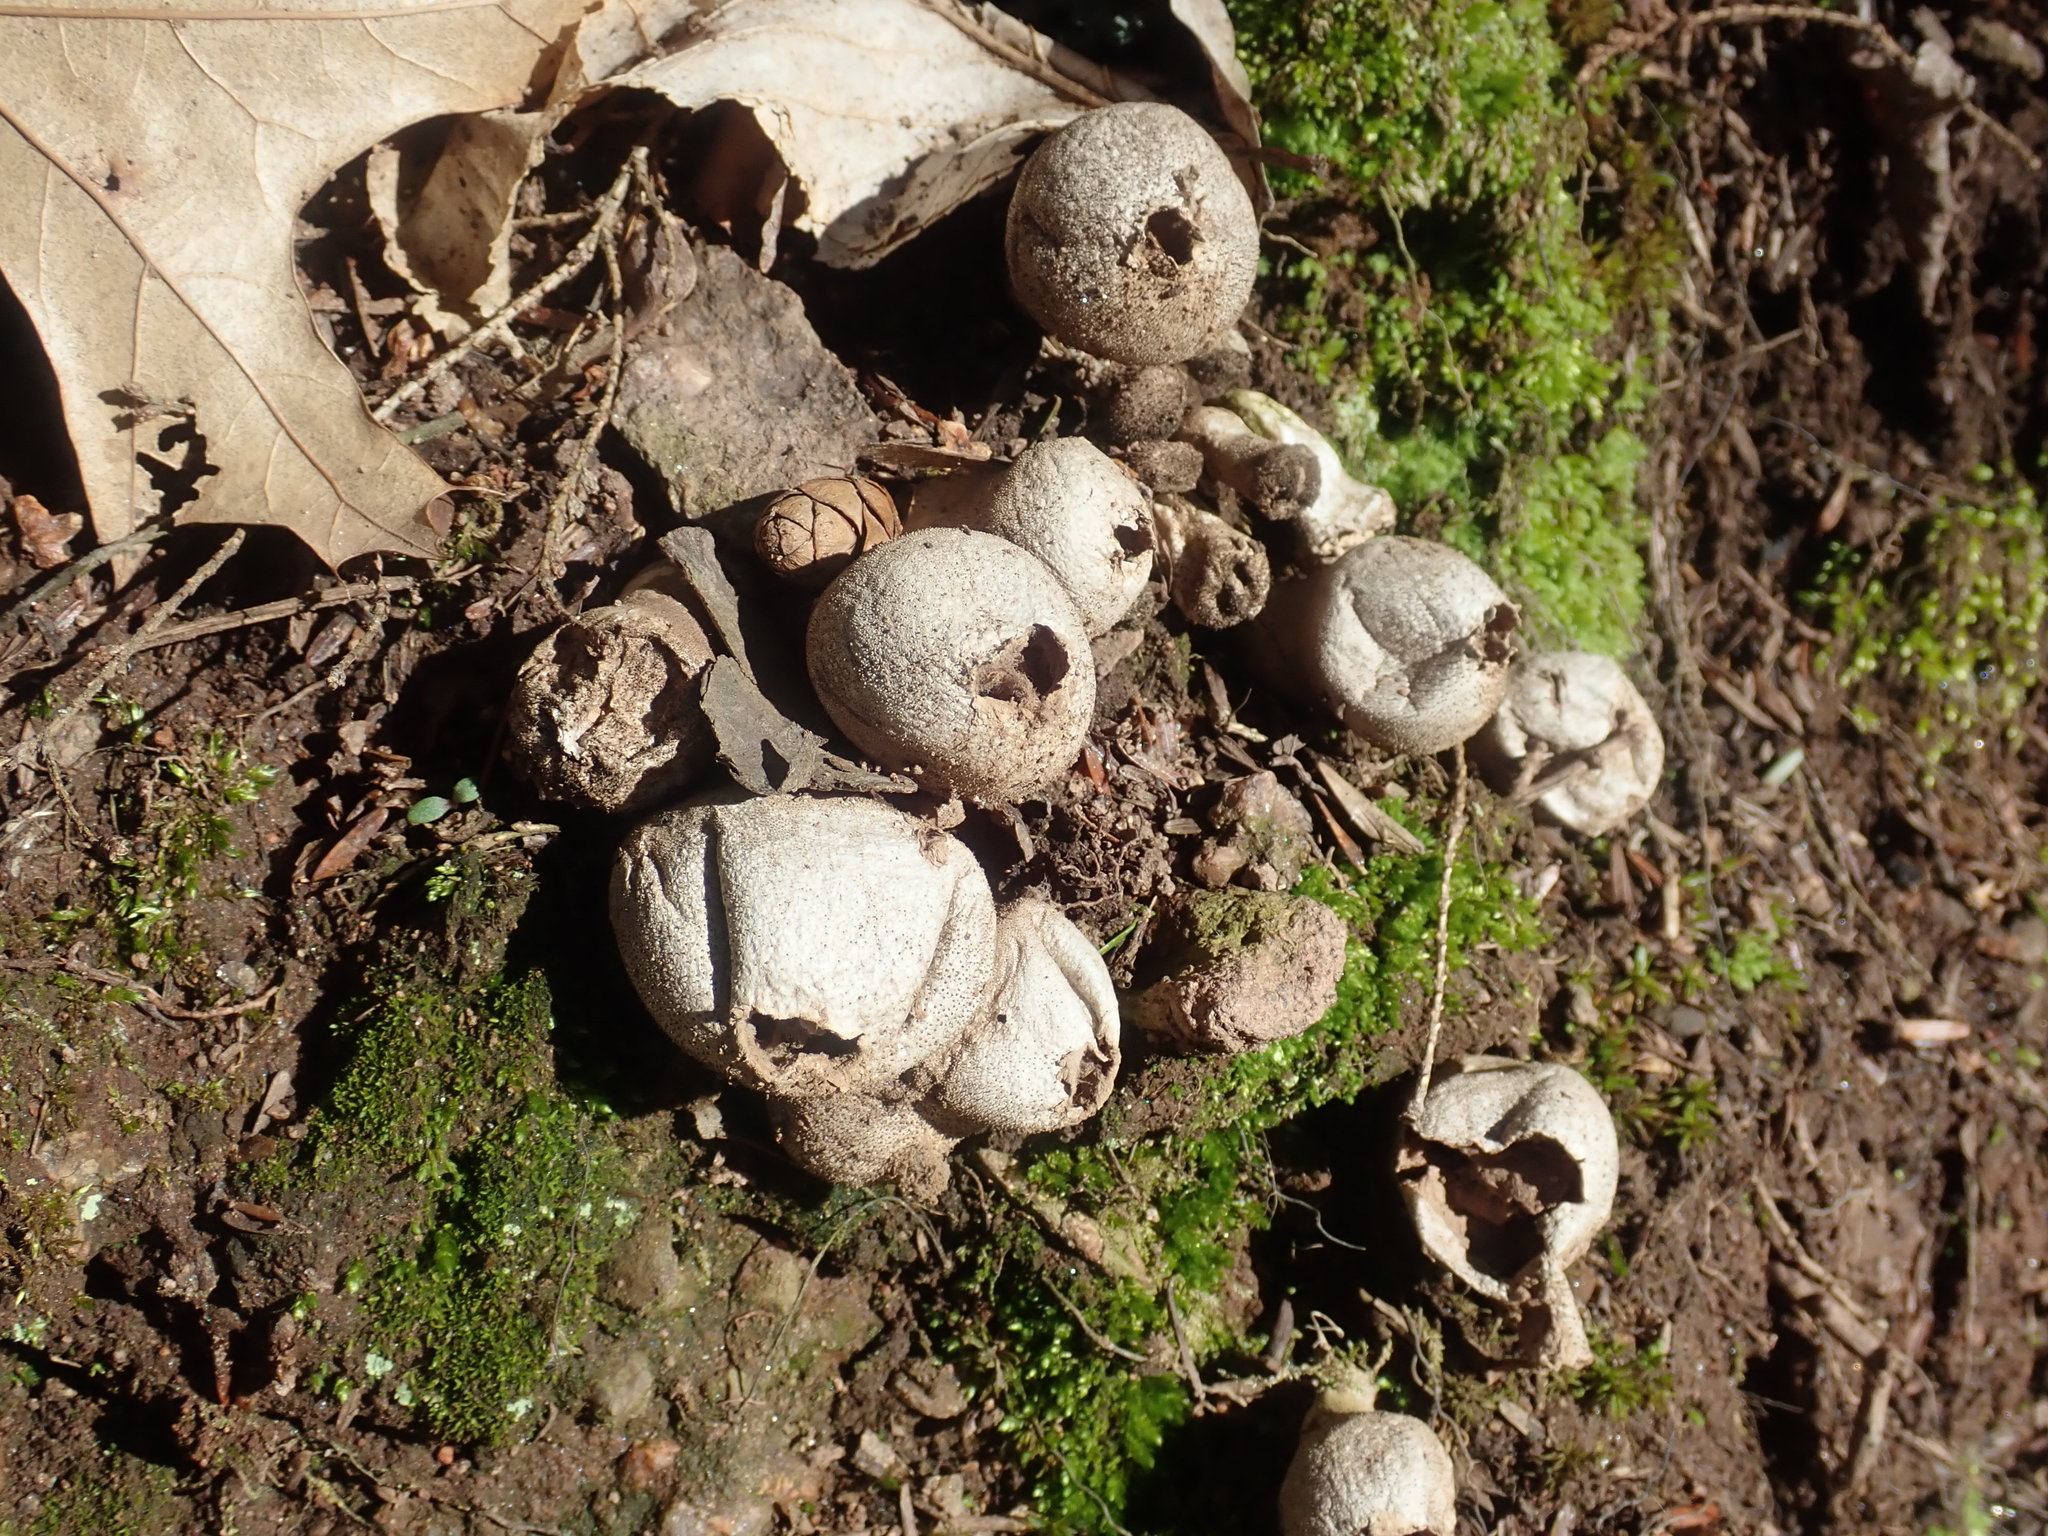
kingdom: Fungi
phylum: Basidiomycota
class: Agaricomycetes
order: Agaricales
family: Lycoperdaceae
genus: Apioperdon
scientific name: Apioperdon pyriforme
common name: Pear-shaped puffball
